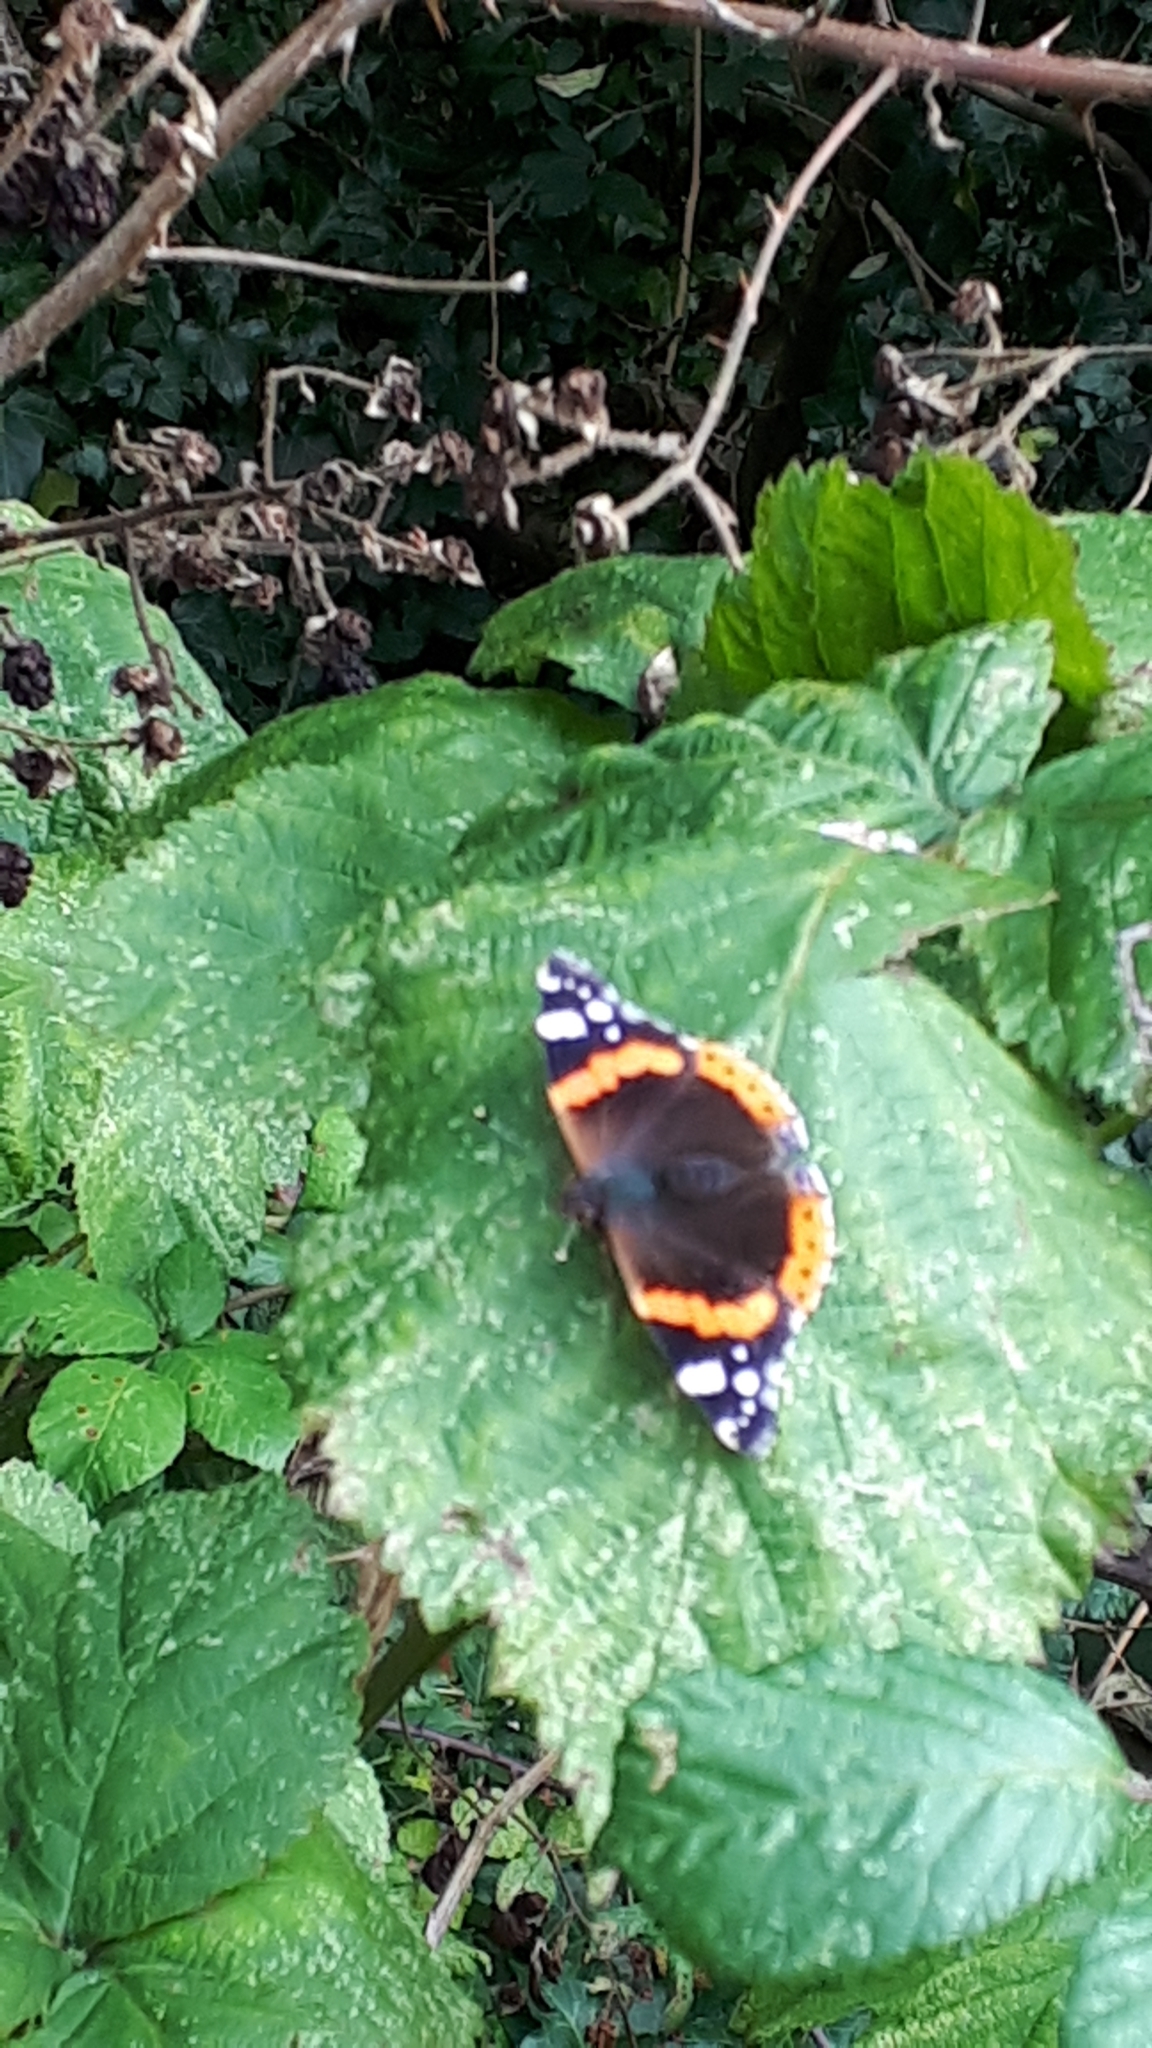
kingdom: Animalia
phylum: Arthropoda
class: Insecta
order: Lepidoptera
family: Nymphalidae
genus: Vanessa
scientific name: Vanessa atalanta
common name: Red admiral
